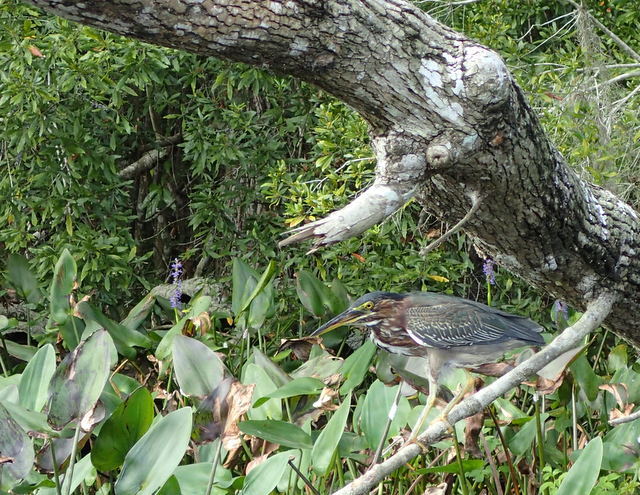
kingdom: Animalia
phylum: Chordata
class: Aves
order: Pelecaniformes
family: Ardeidae
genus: Butorides
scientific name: Butorides virescens
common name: Green heron
